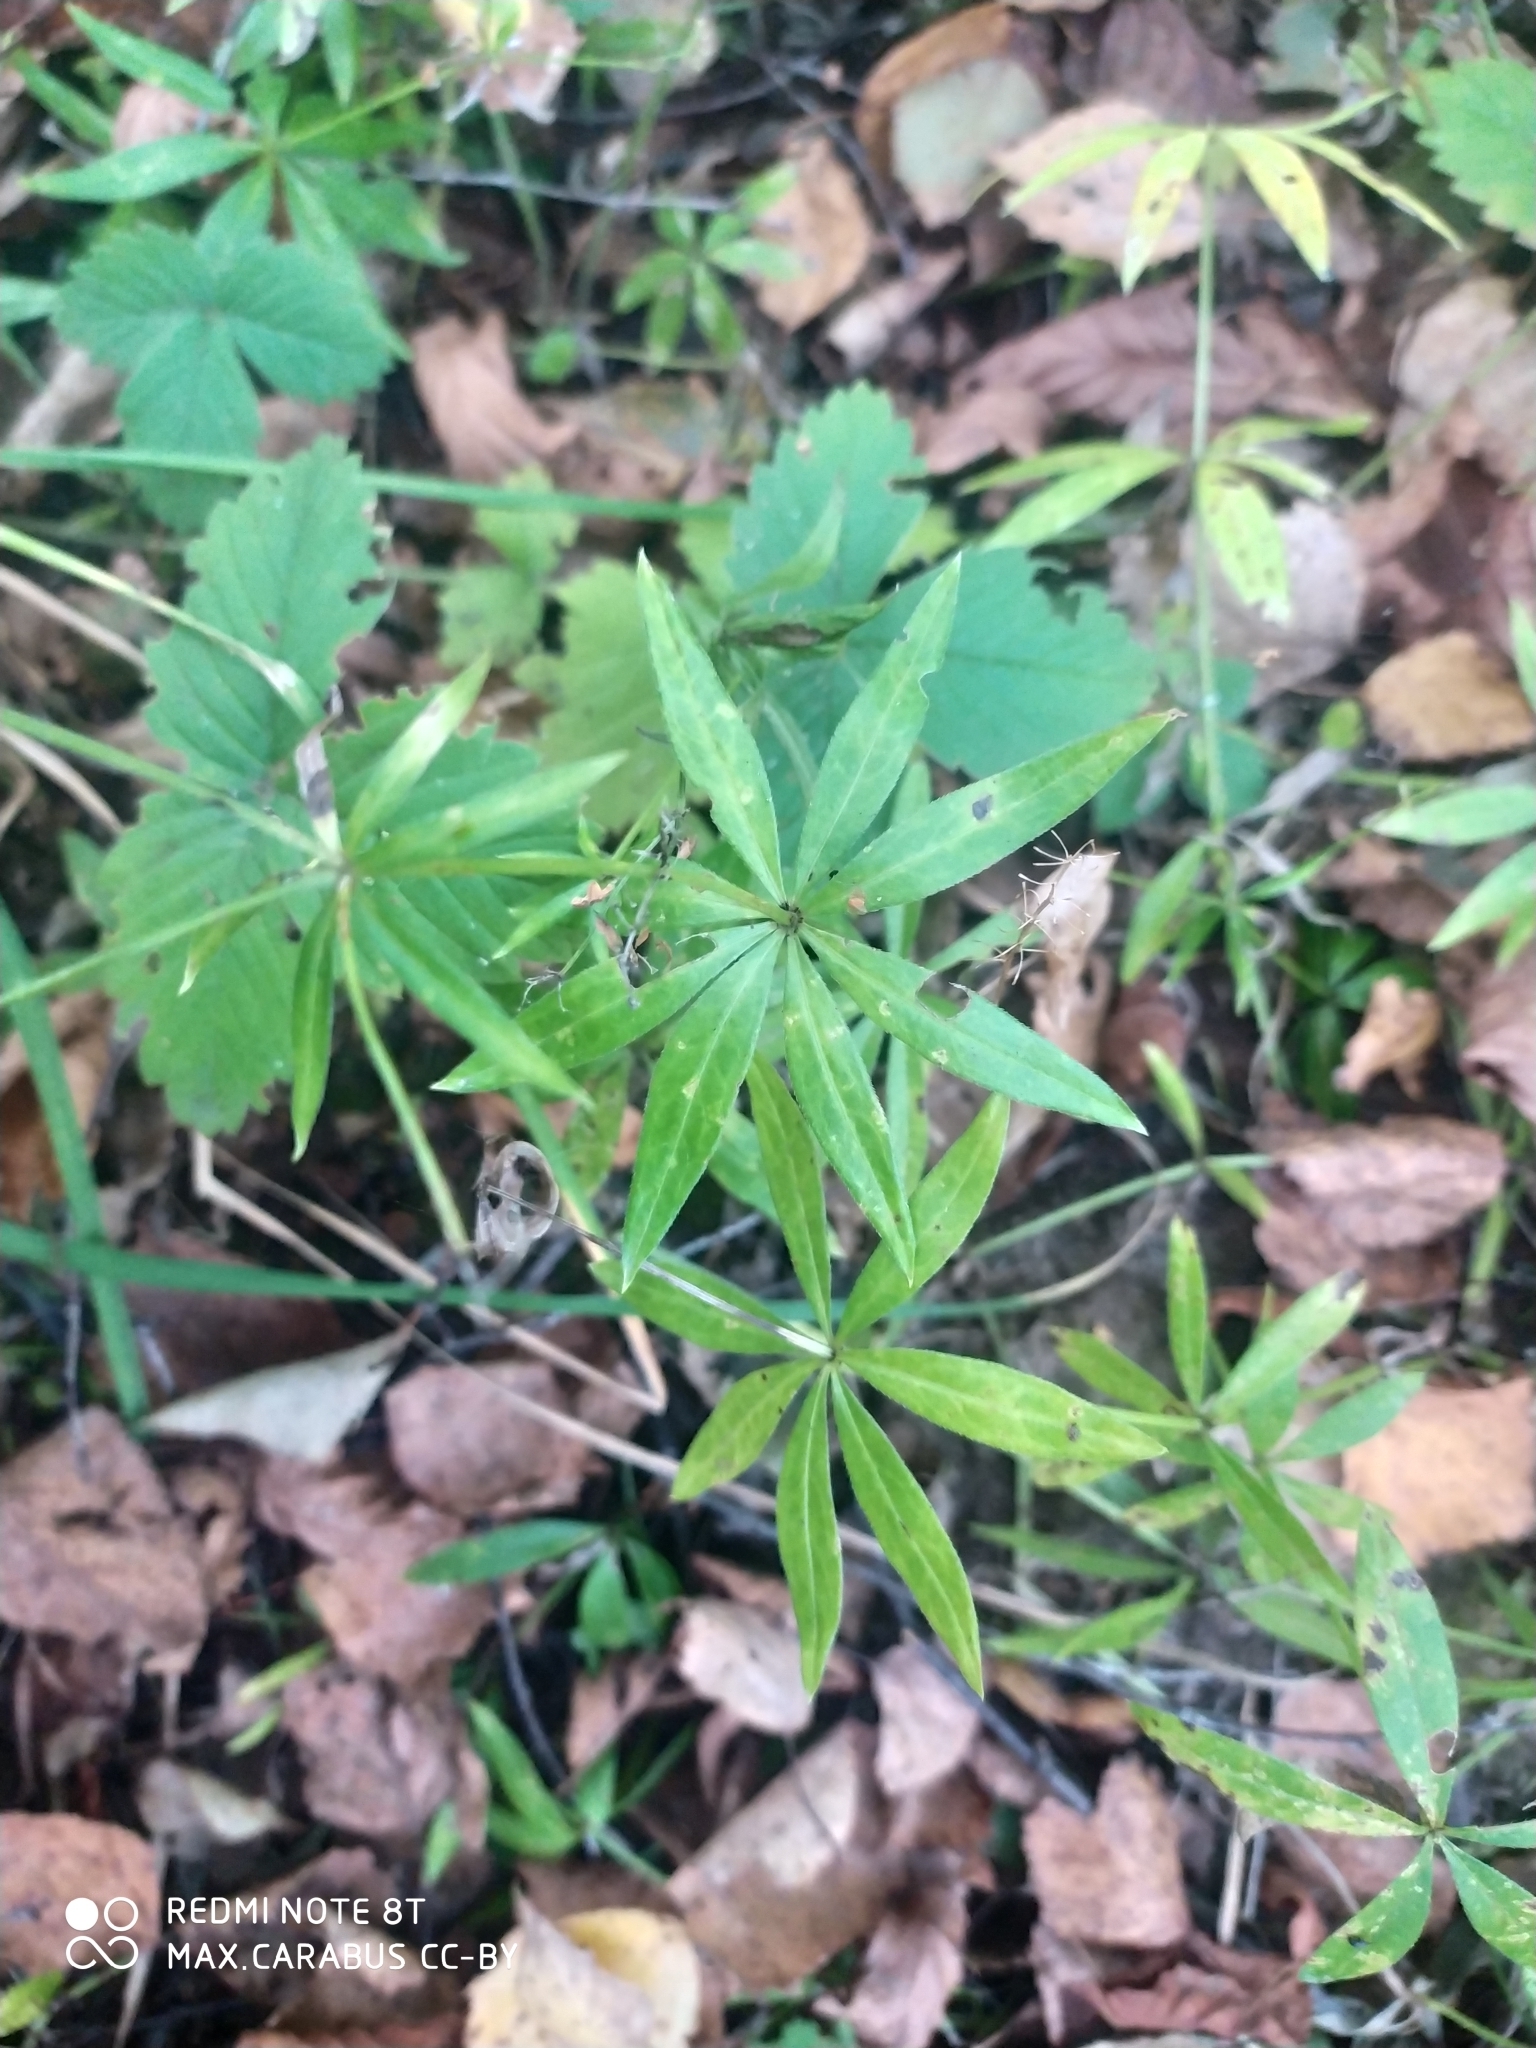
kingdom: Plantae
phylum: Tracheophyta
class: Magnoliopsida
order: Gentianales
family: Rubiaceae
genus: Galium
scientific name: Galium odoratum
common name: Sweet woodruff
